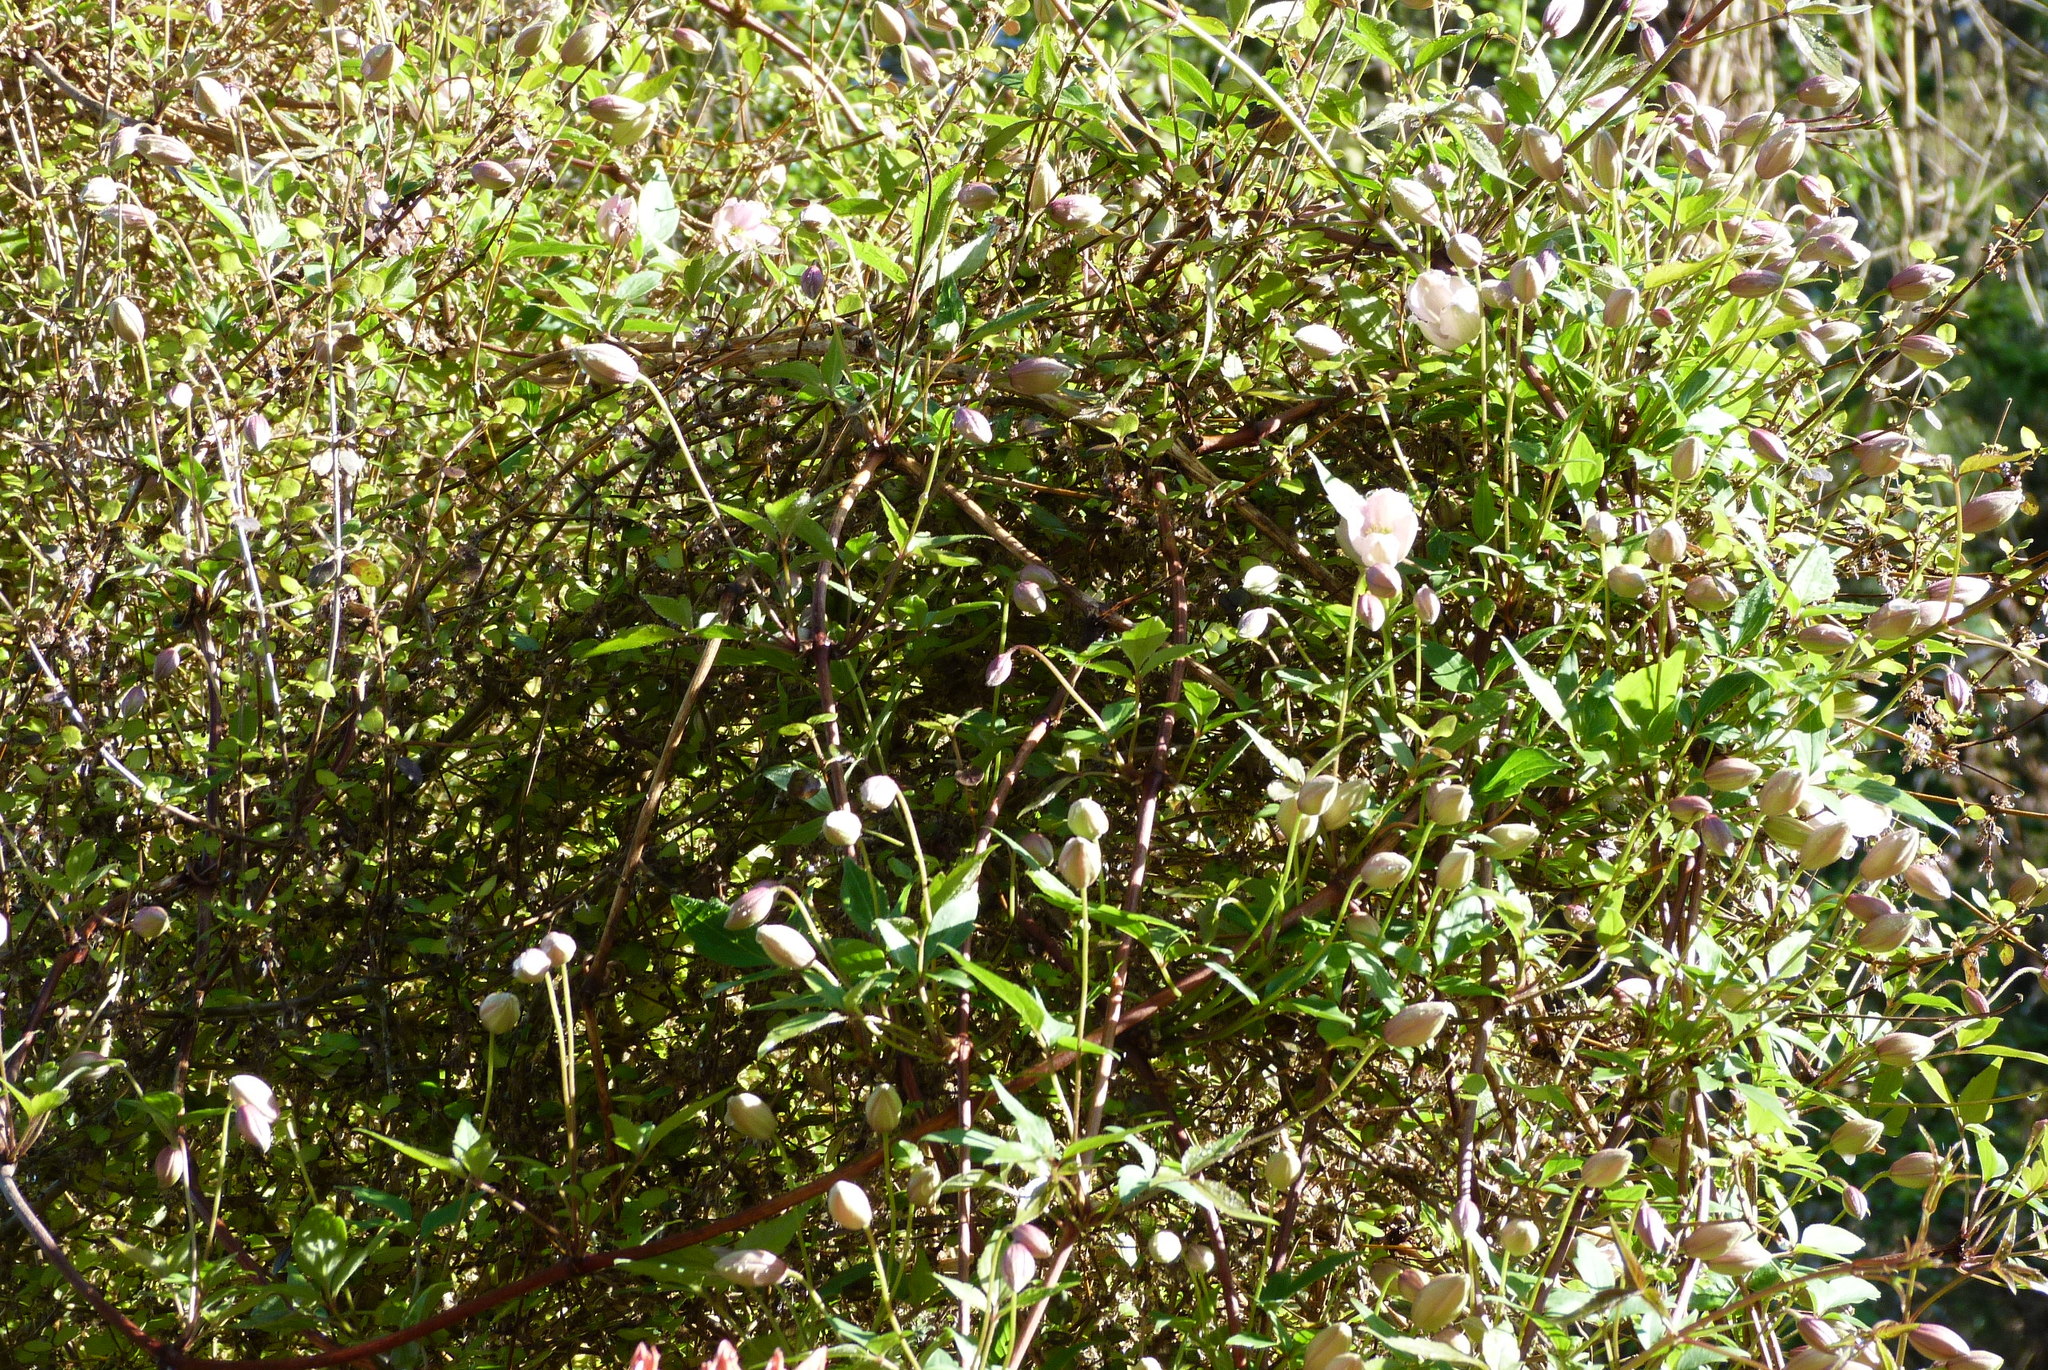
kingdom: Plantae
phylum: Tracheophyta
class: Magnoliopsida
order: Ranunculales
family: Ranunculaceae
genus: Clematis
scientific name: Clematis montana
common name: Himalayan clematis
